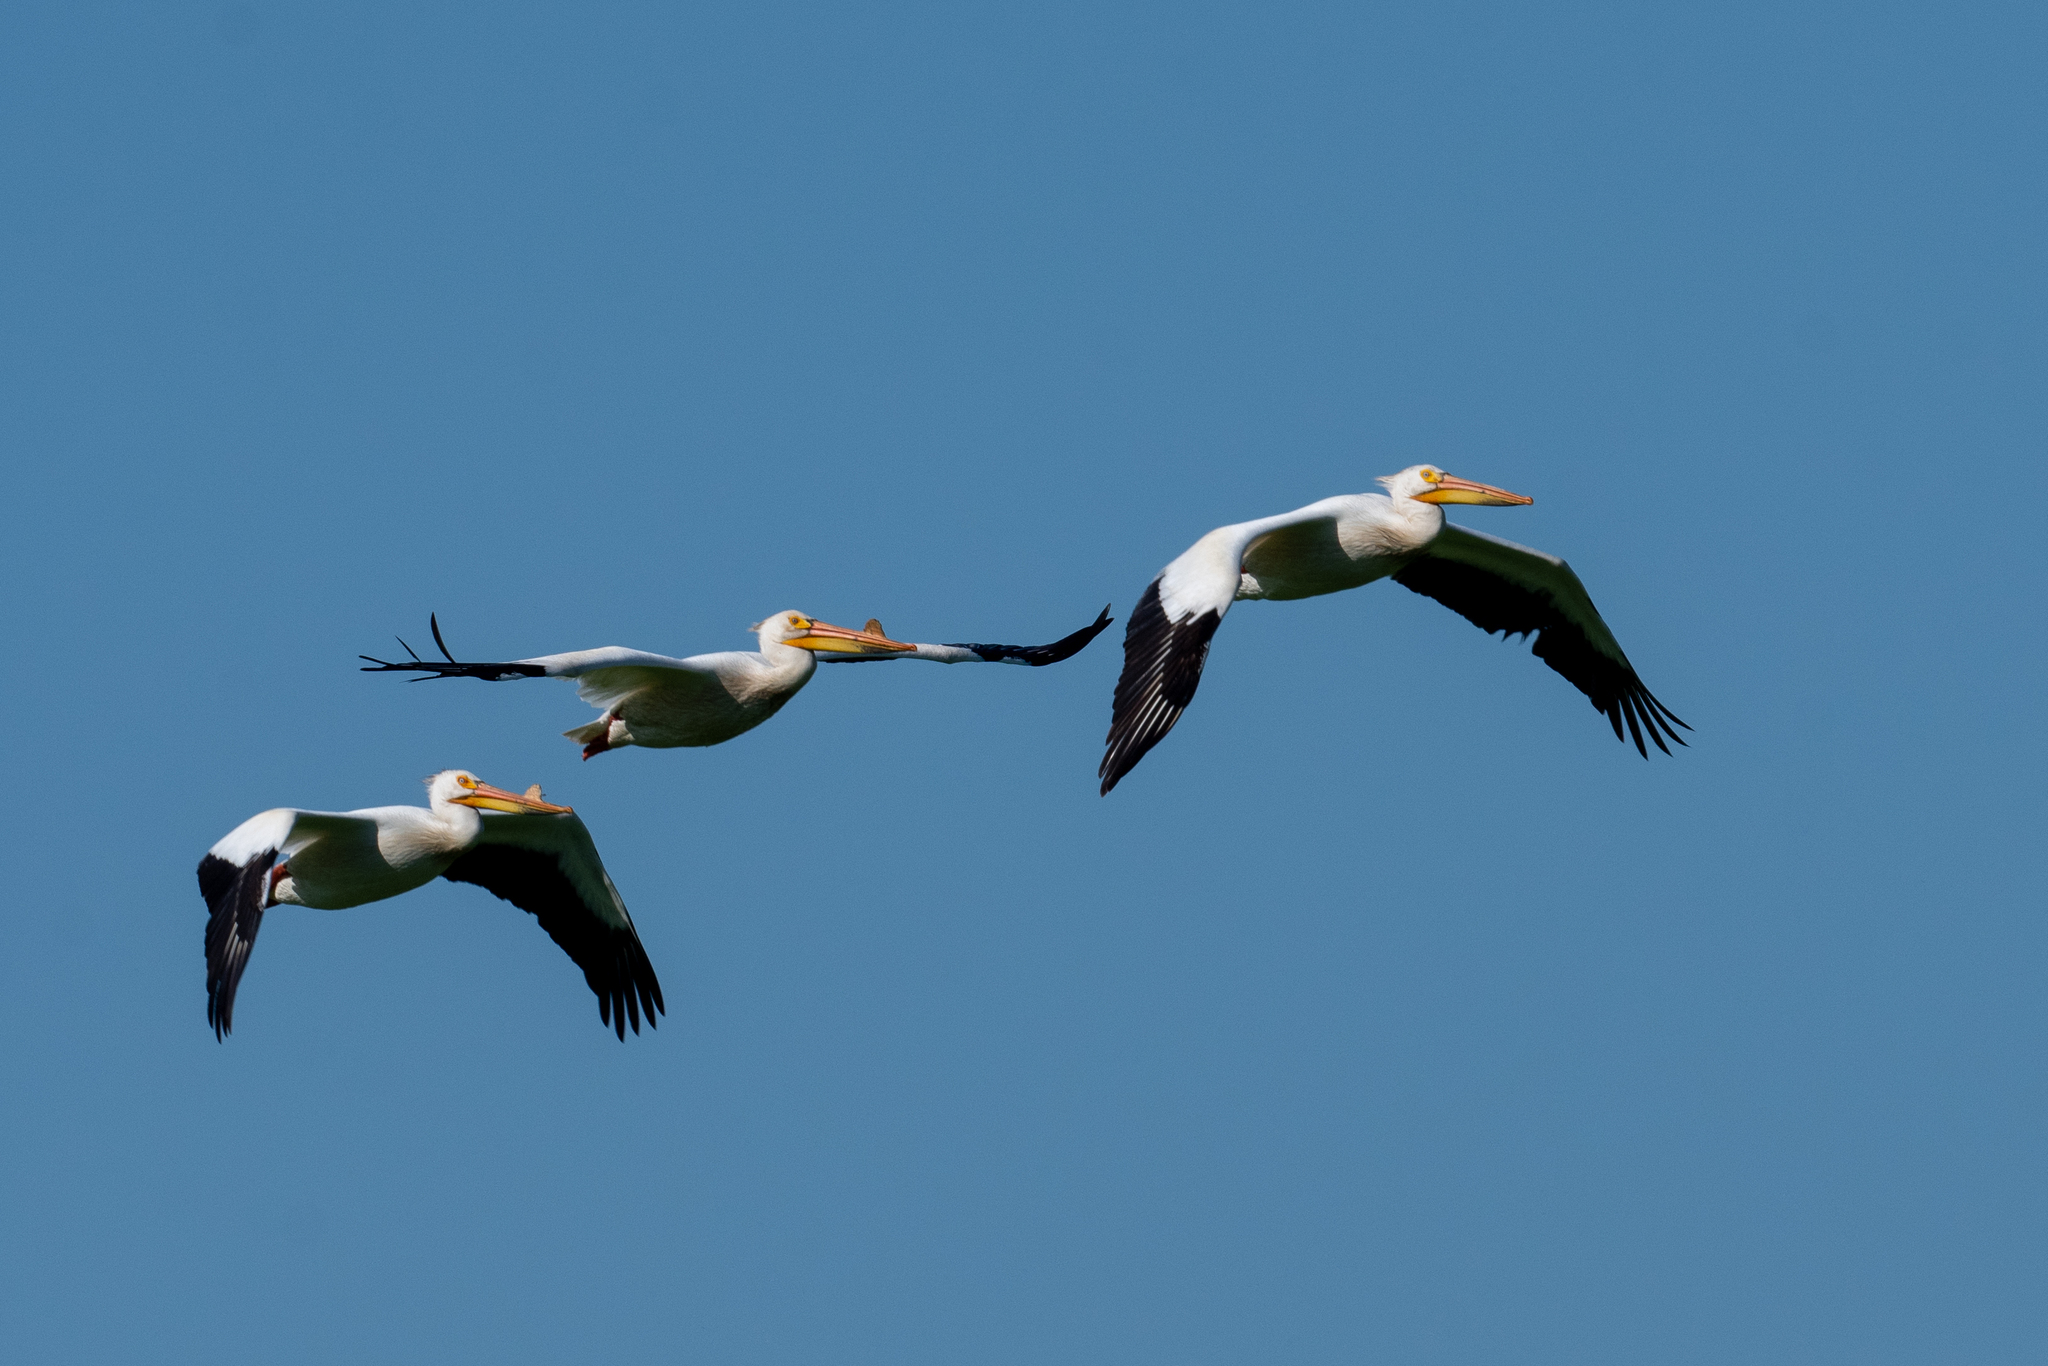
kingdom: Animalia
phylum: Chordata
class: Aves
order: Pelecaniformes
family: Pelecanidae
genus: Pelecanus
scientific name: Pelecanus erythrorhynchos
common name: American white pelican
